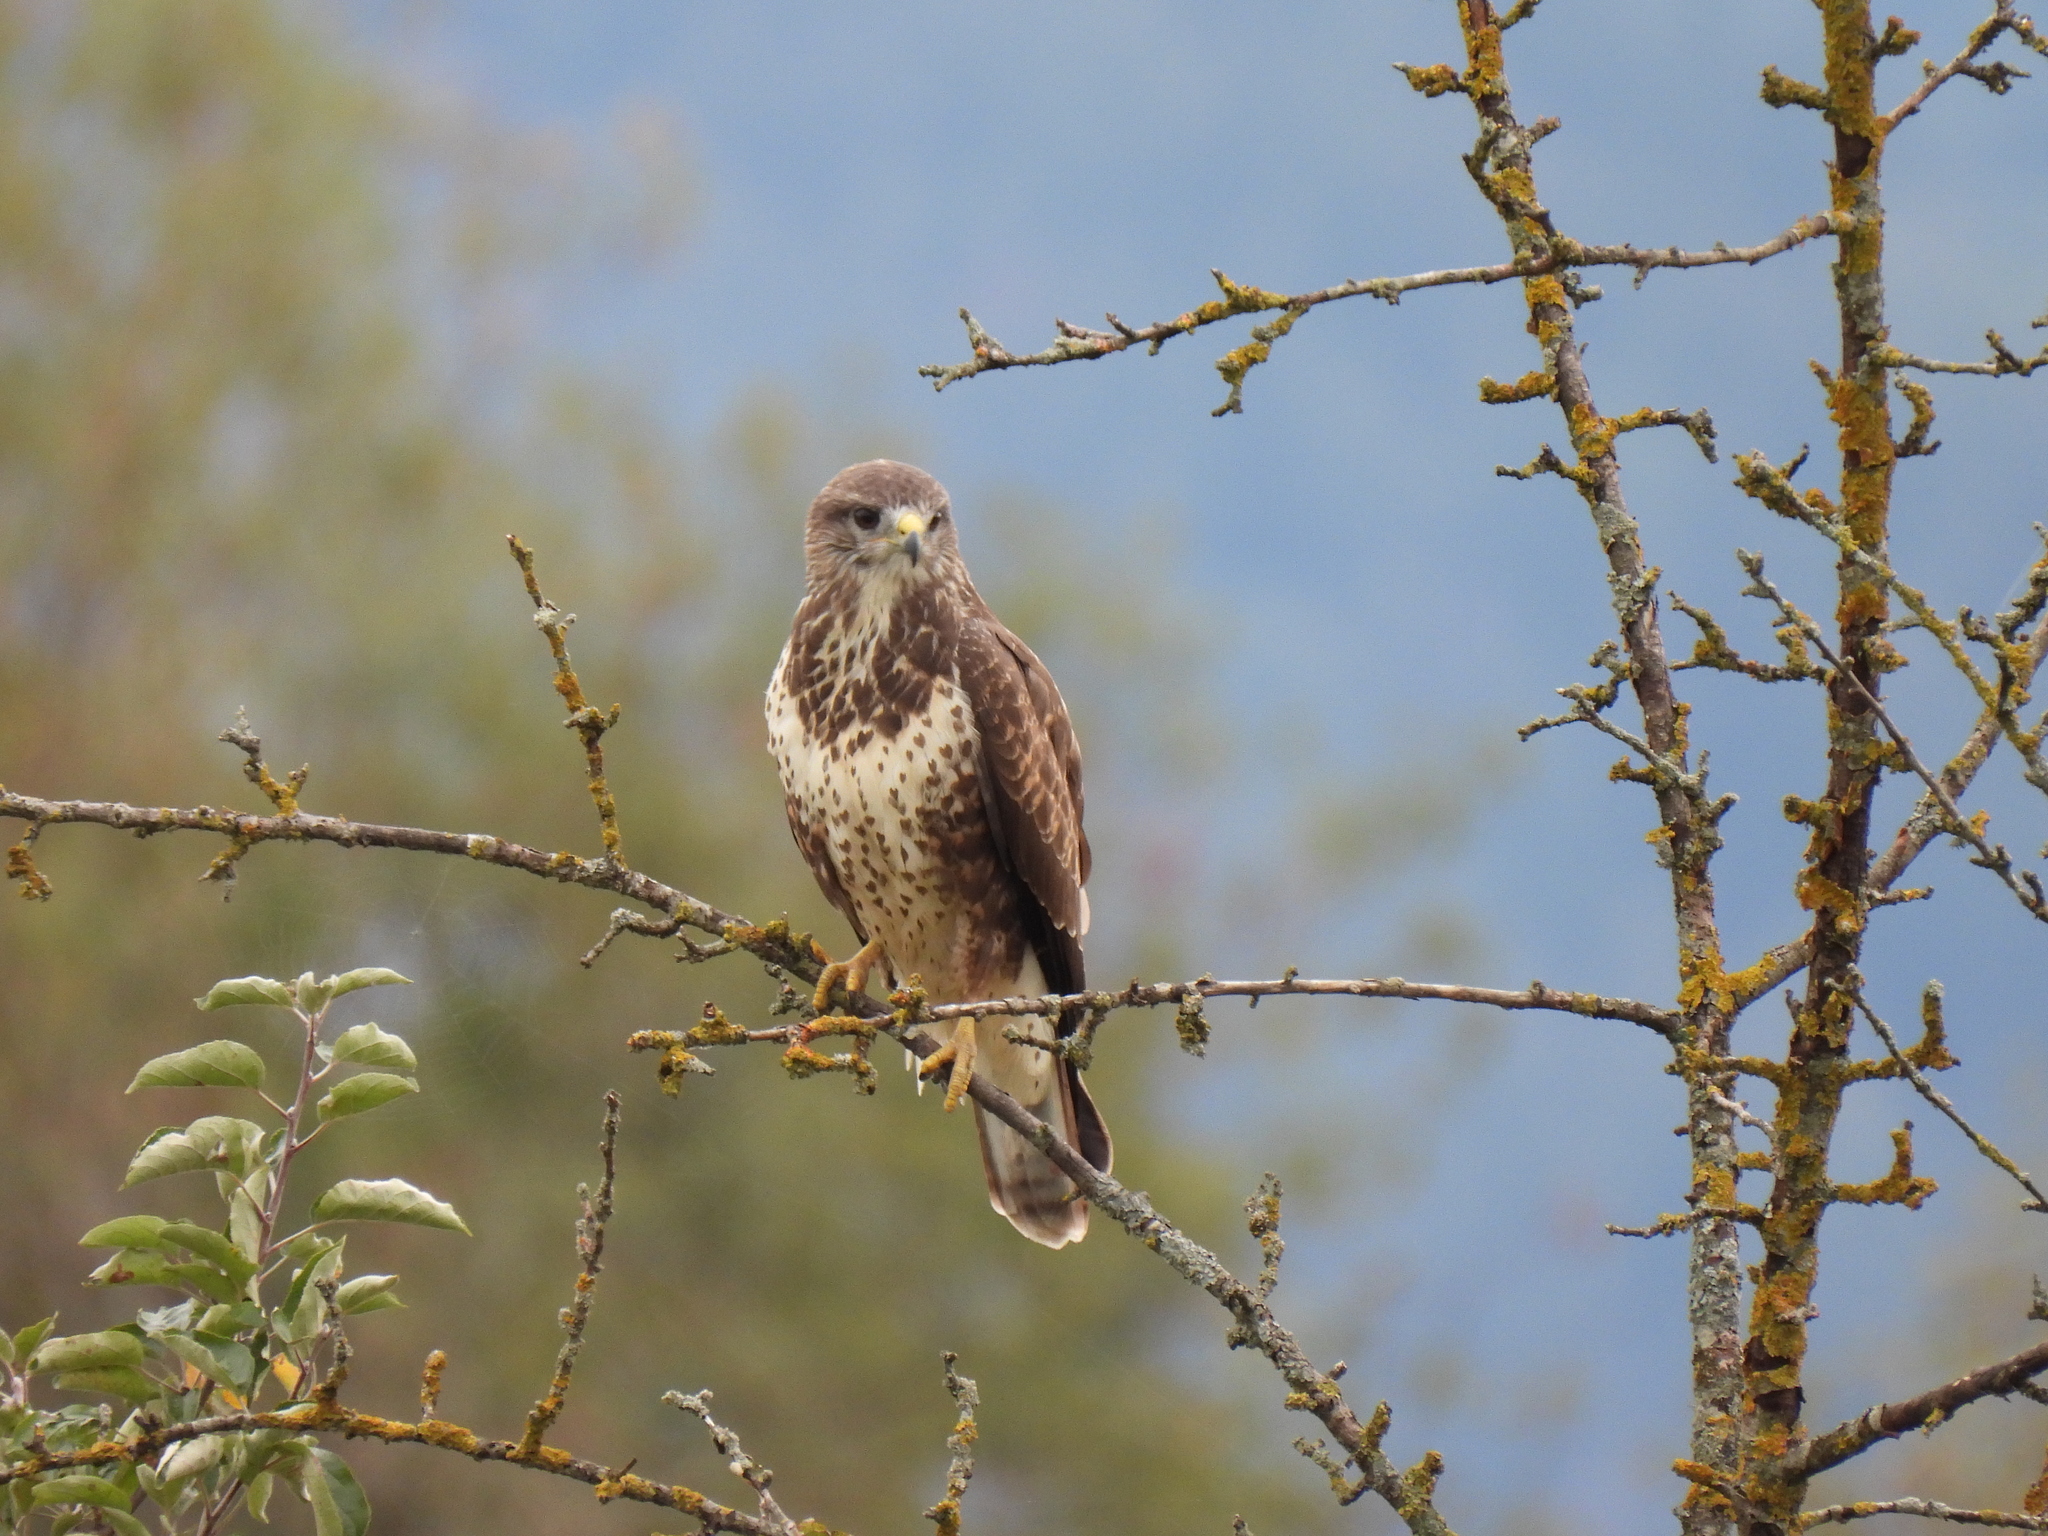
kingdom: Animalia
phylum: Chordata
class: Aves
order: Accipitriformes
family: Accipitridae
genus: Buteo
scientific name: Buteo buteo
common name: Common buzzard
